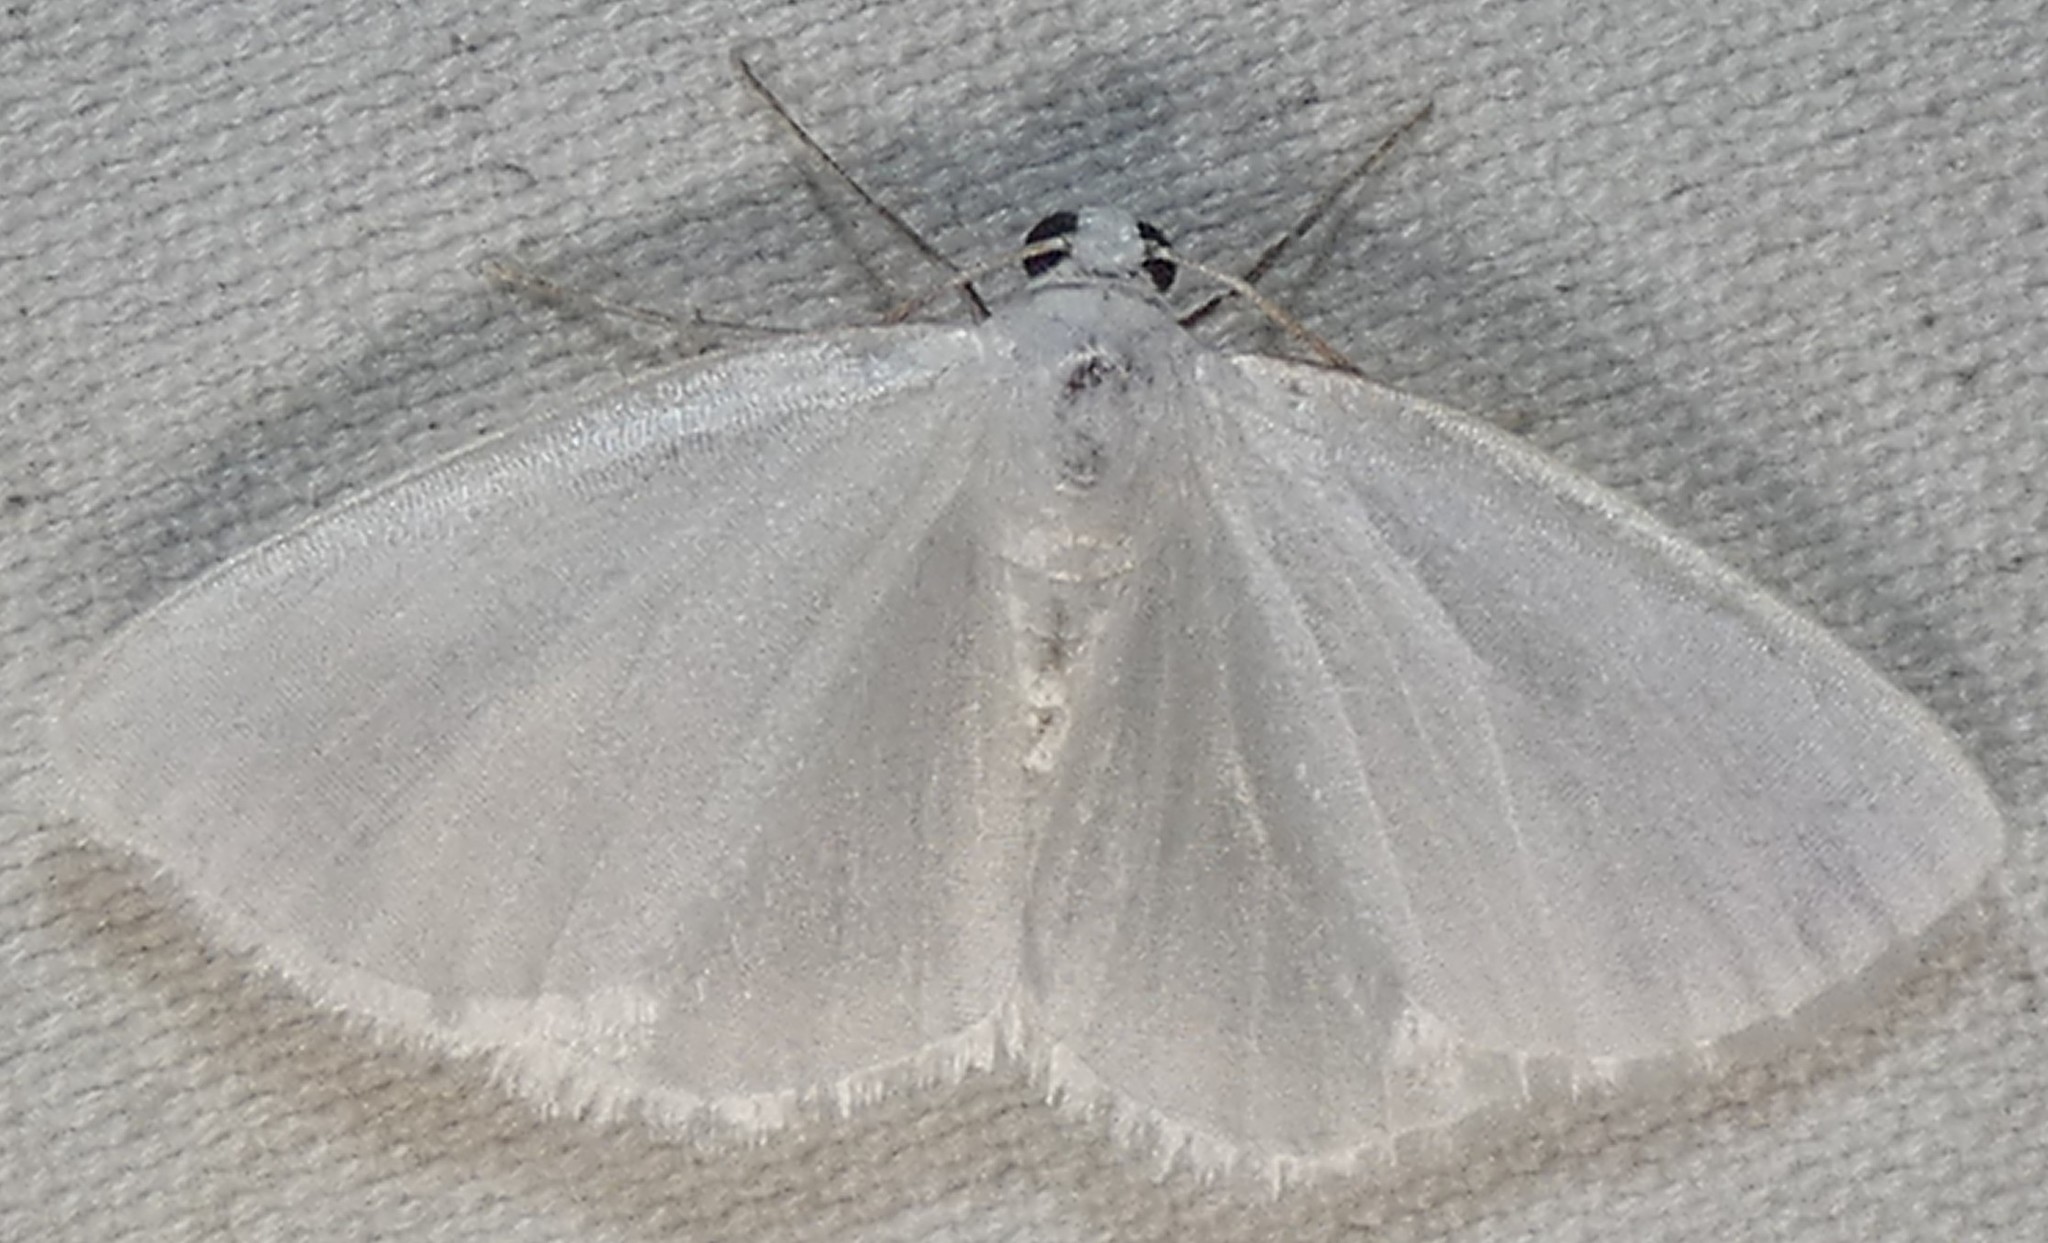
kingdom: Animalia
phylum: Arthropoda
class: Insecta
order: Lepidoptera
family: Geometridae
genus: Lomographa
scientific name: Lomographa vestaliata
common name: White spring moth
